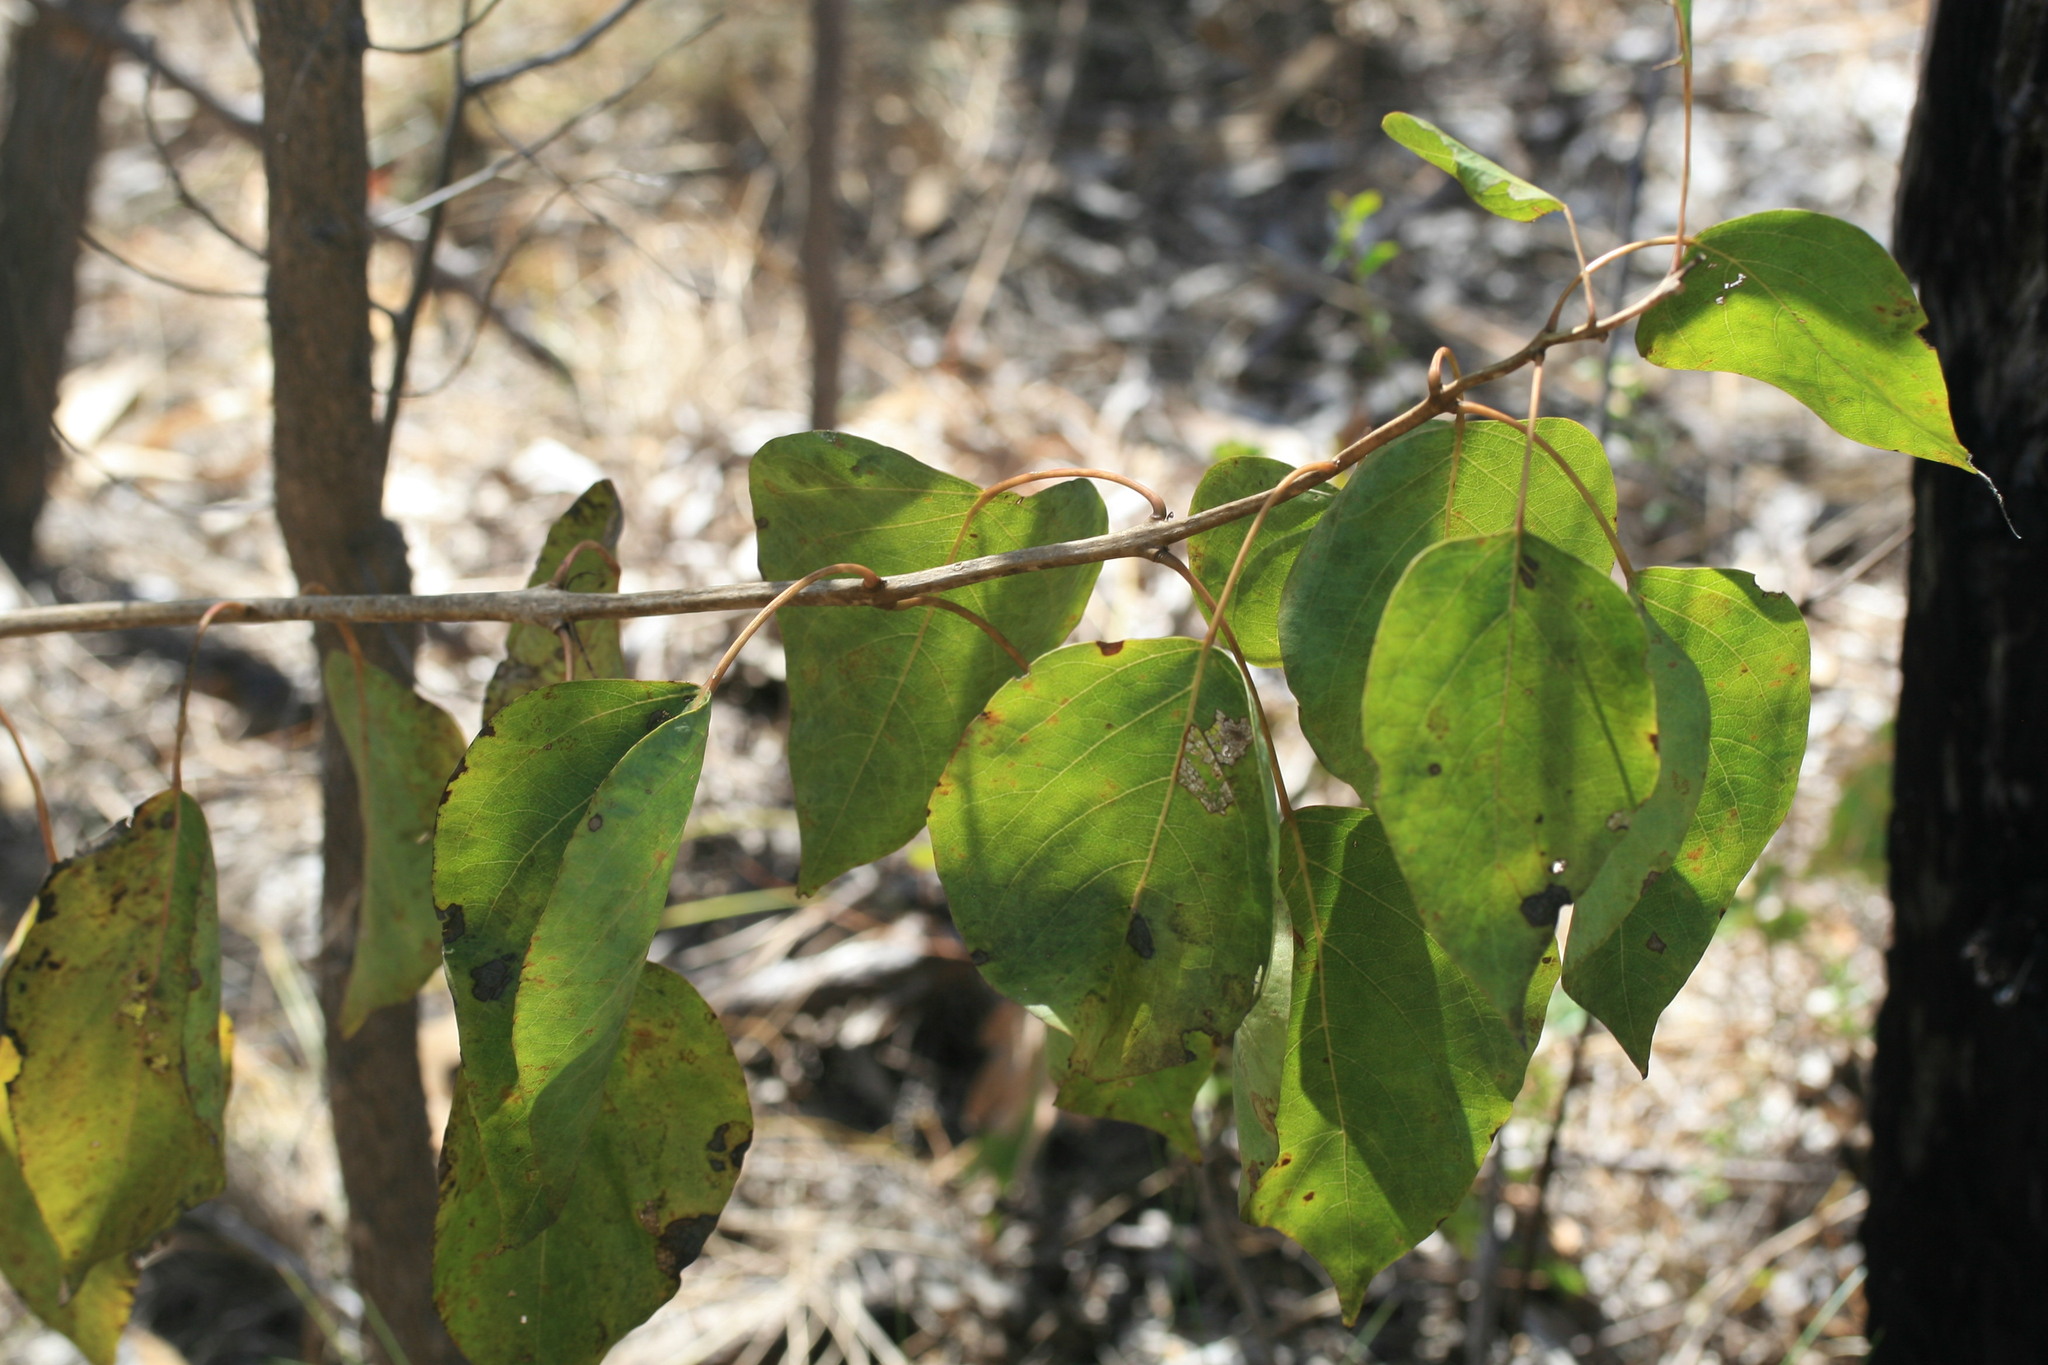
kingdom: Plantae
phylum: Tracheophyta
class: Magnoliopsida
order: Lamiales
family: Lamiaceae
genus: Clerodendrum
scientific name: Clerodendrum costatum
